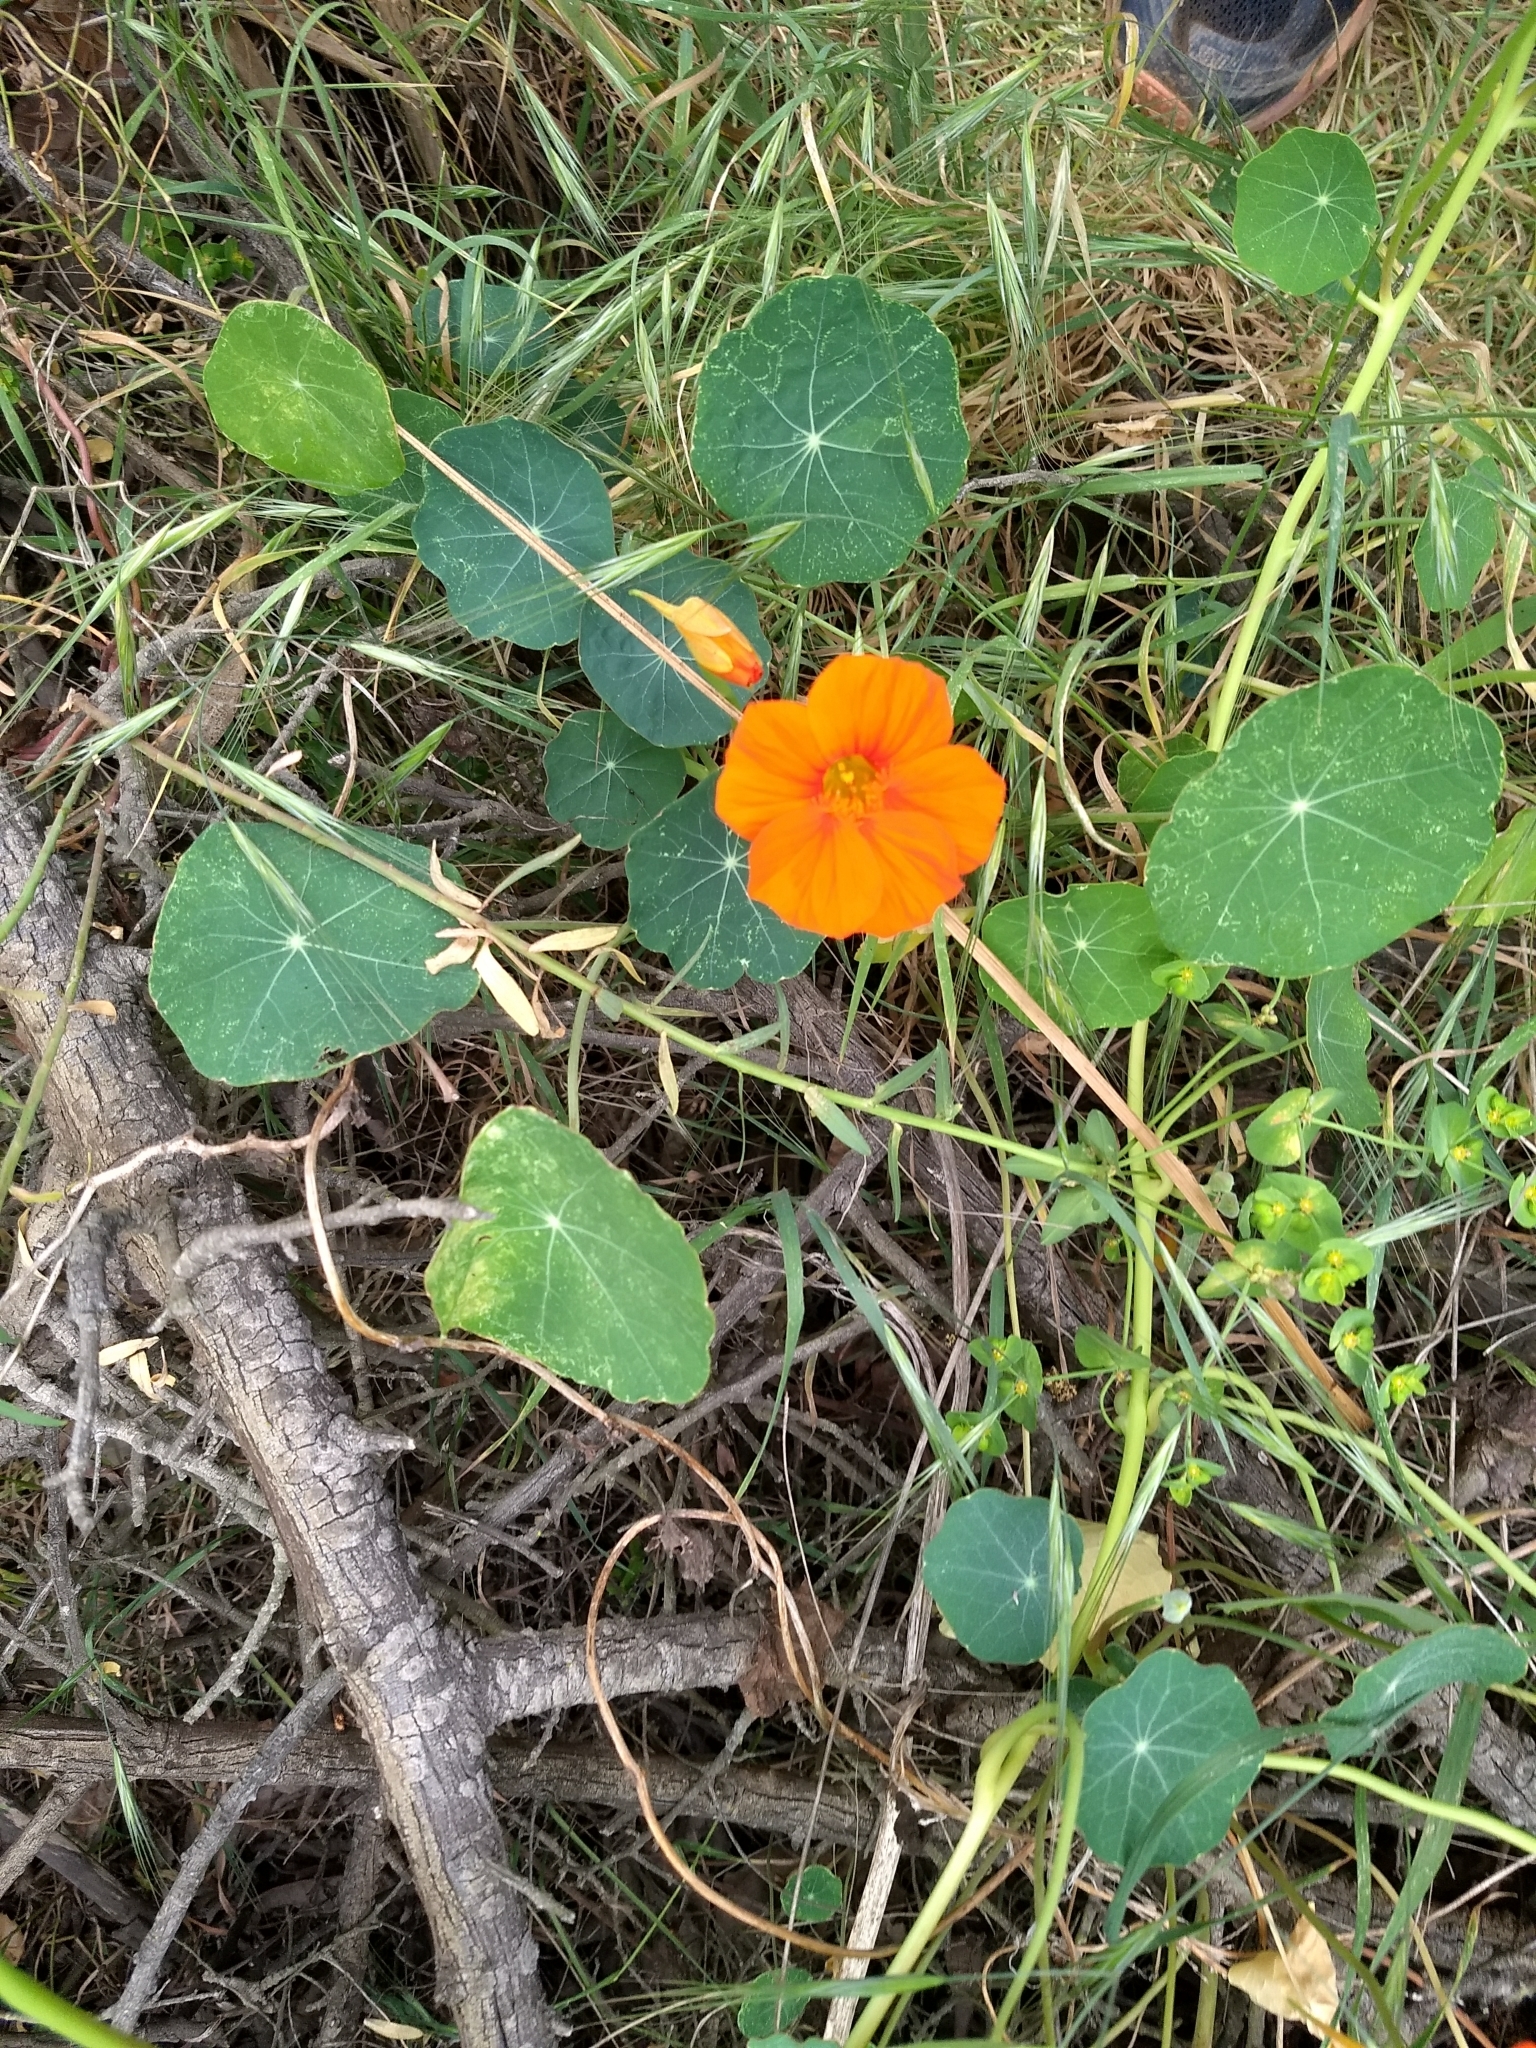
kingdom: Plantae
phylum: Tracheophyta
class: Magnoliopsida
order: Brassicales
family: Tropaeolaceae
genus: Tropaeolum
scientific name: Tropaeolum majus
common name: Nasturtium
